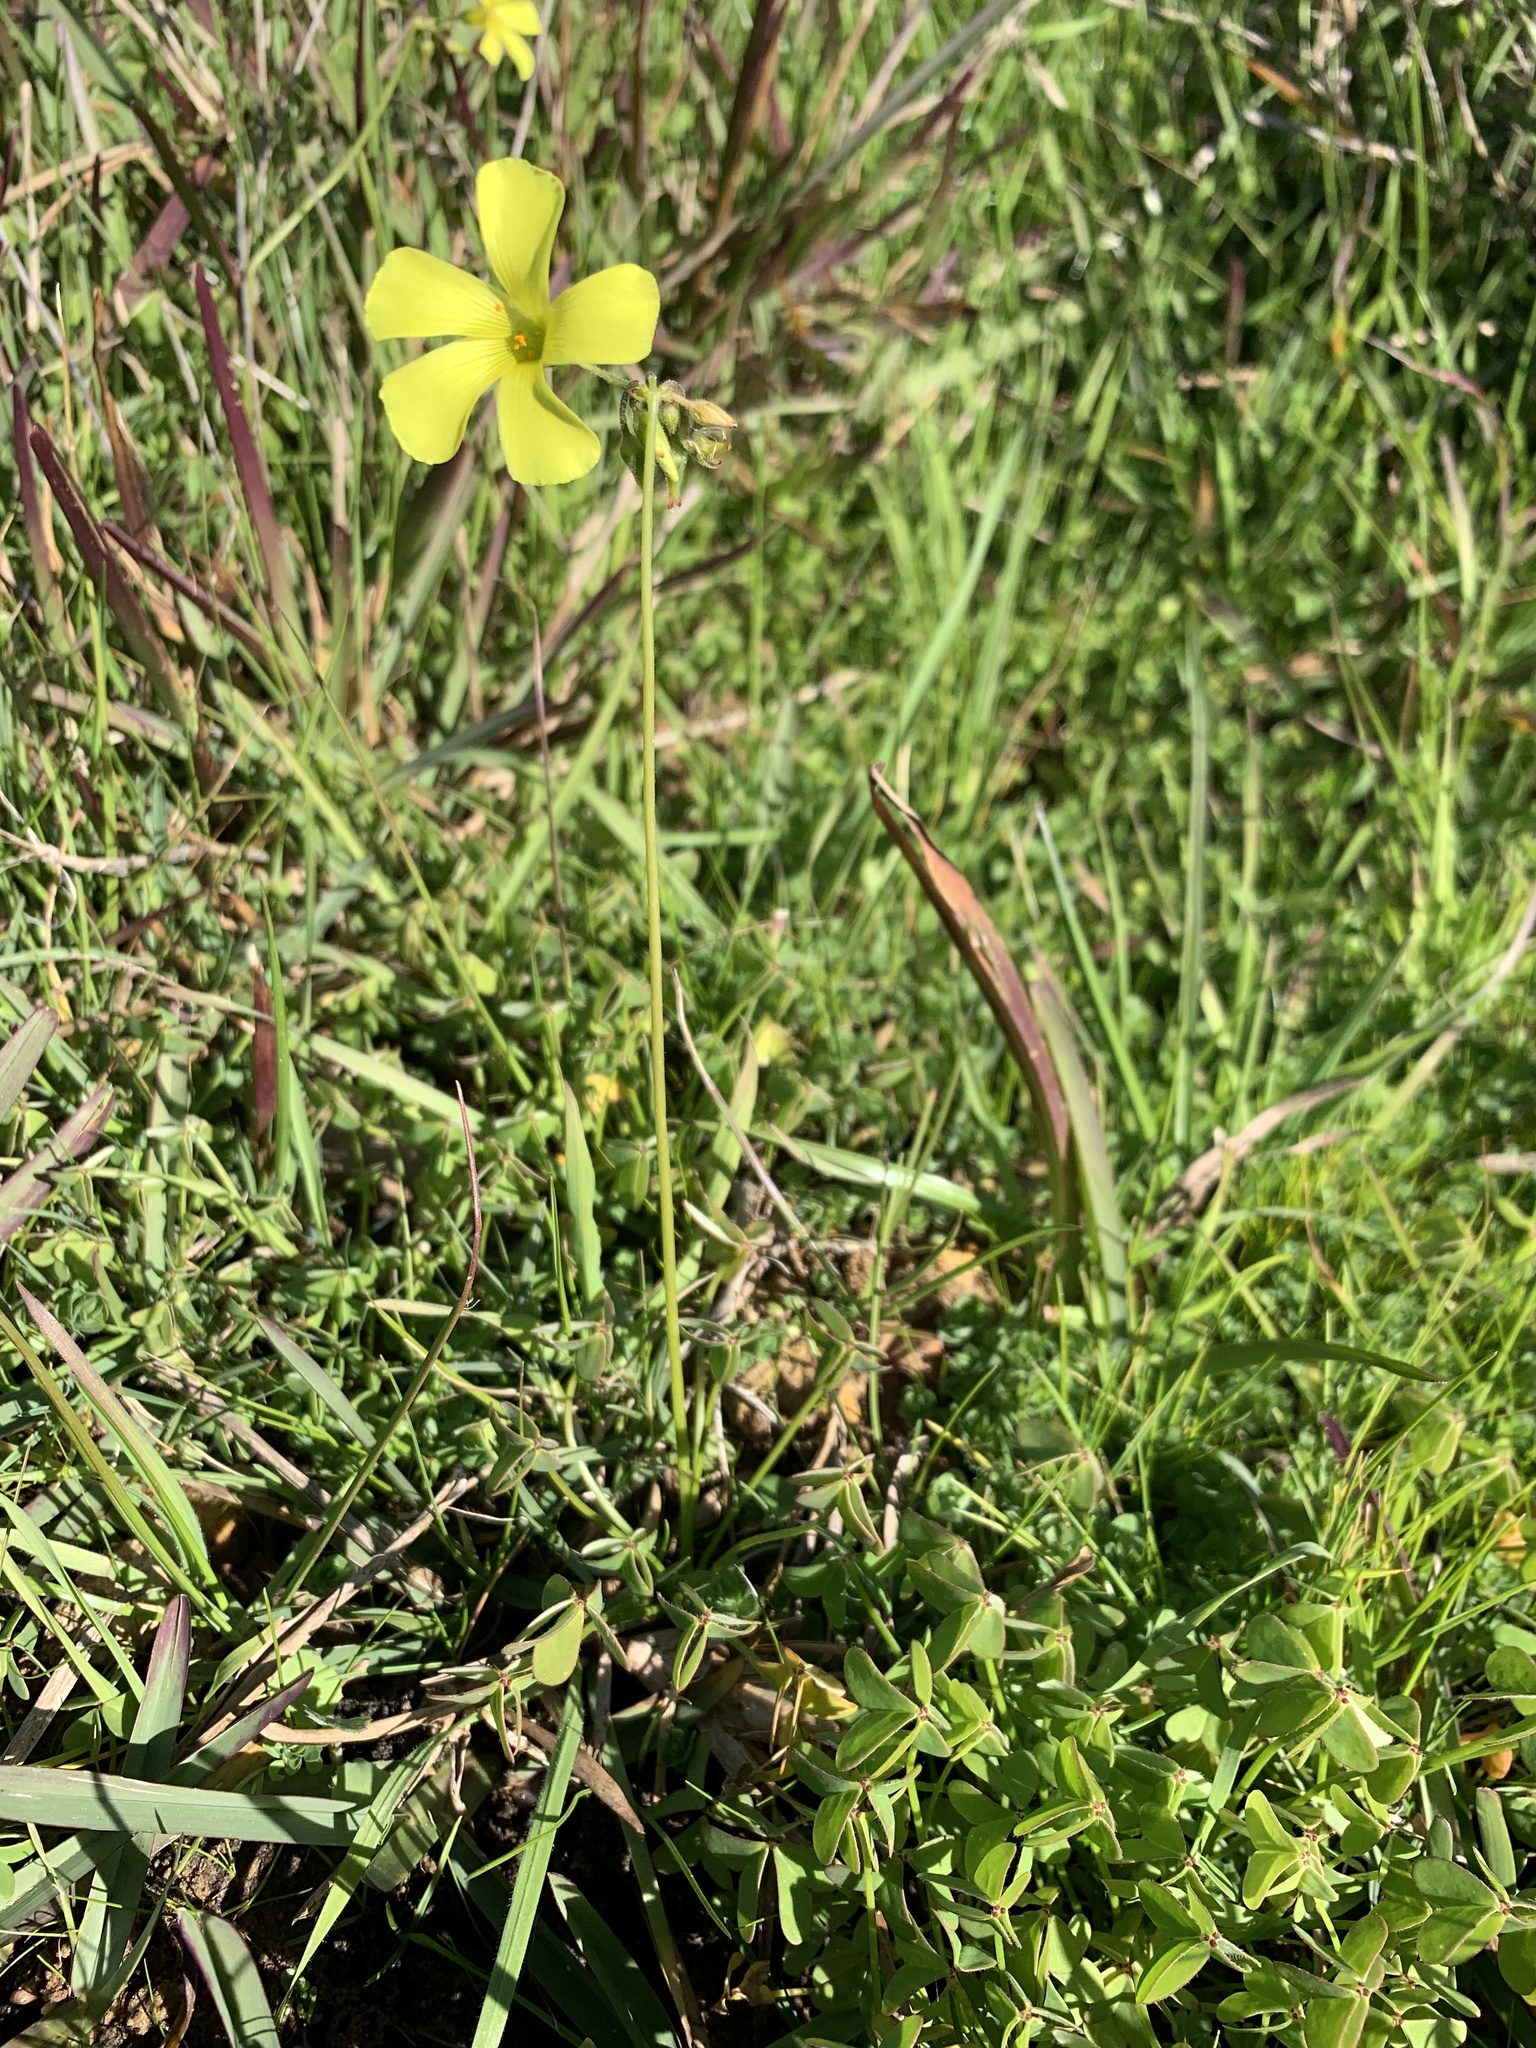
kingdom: Plantae
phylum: Tracheophyta
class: Magnoliopsida
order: Oxalidales
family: Oxalidaceae
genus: Oxalis
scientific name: Oxalis pes-caprae
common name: Bermuda-buttercup
